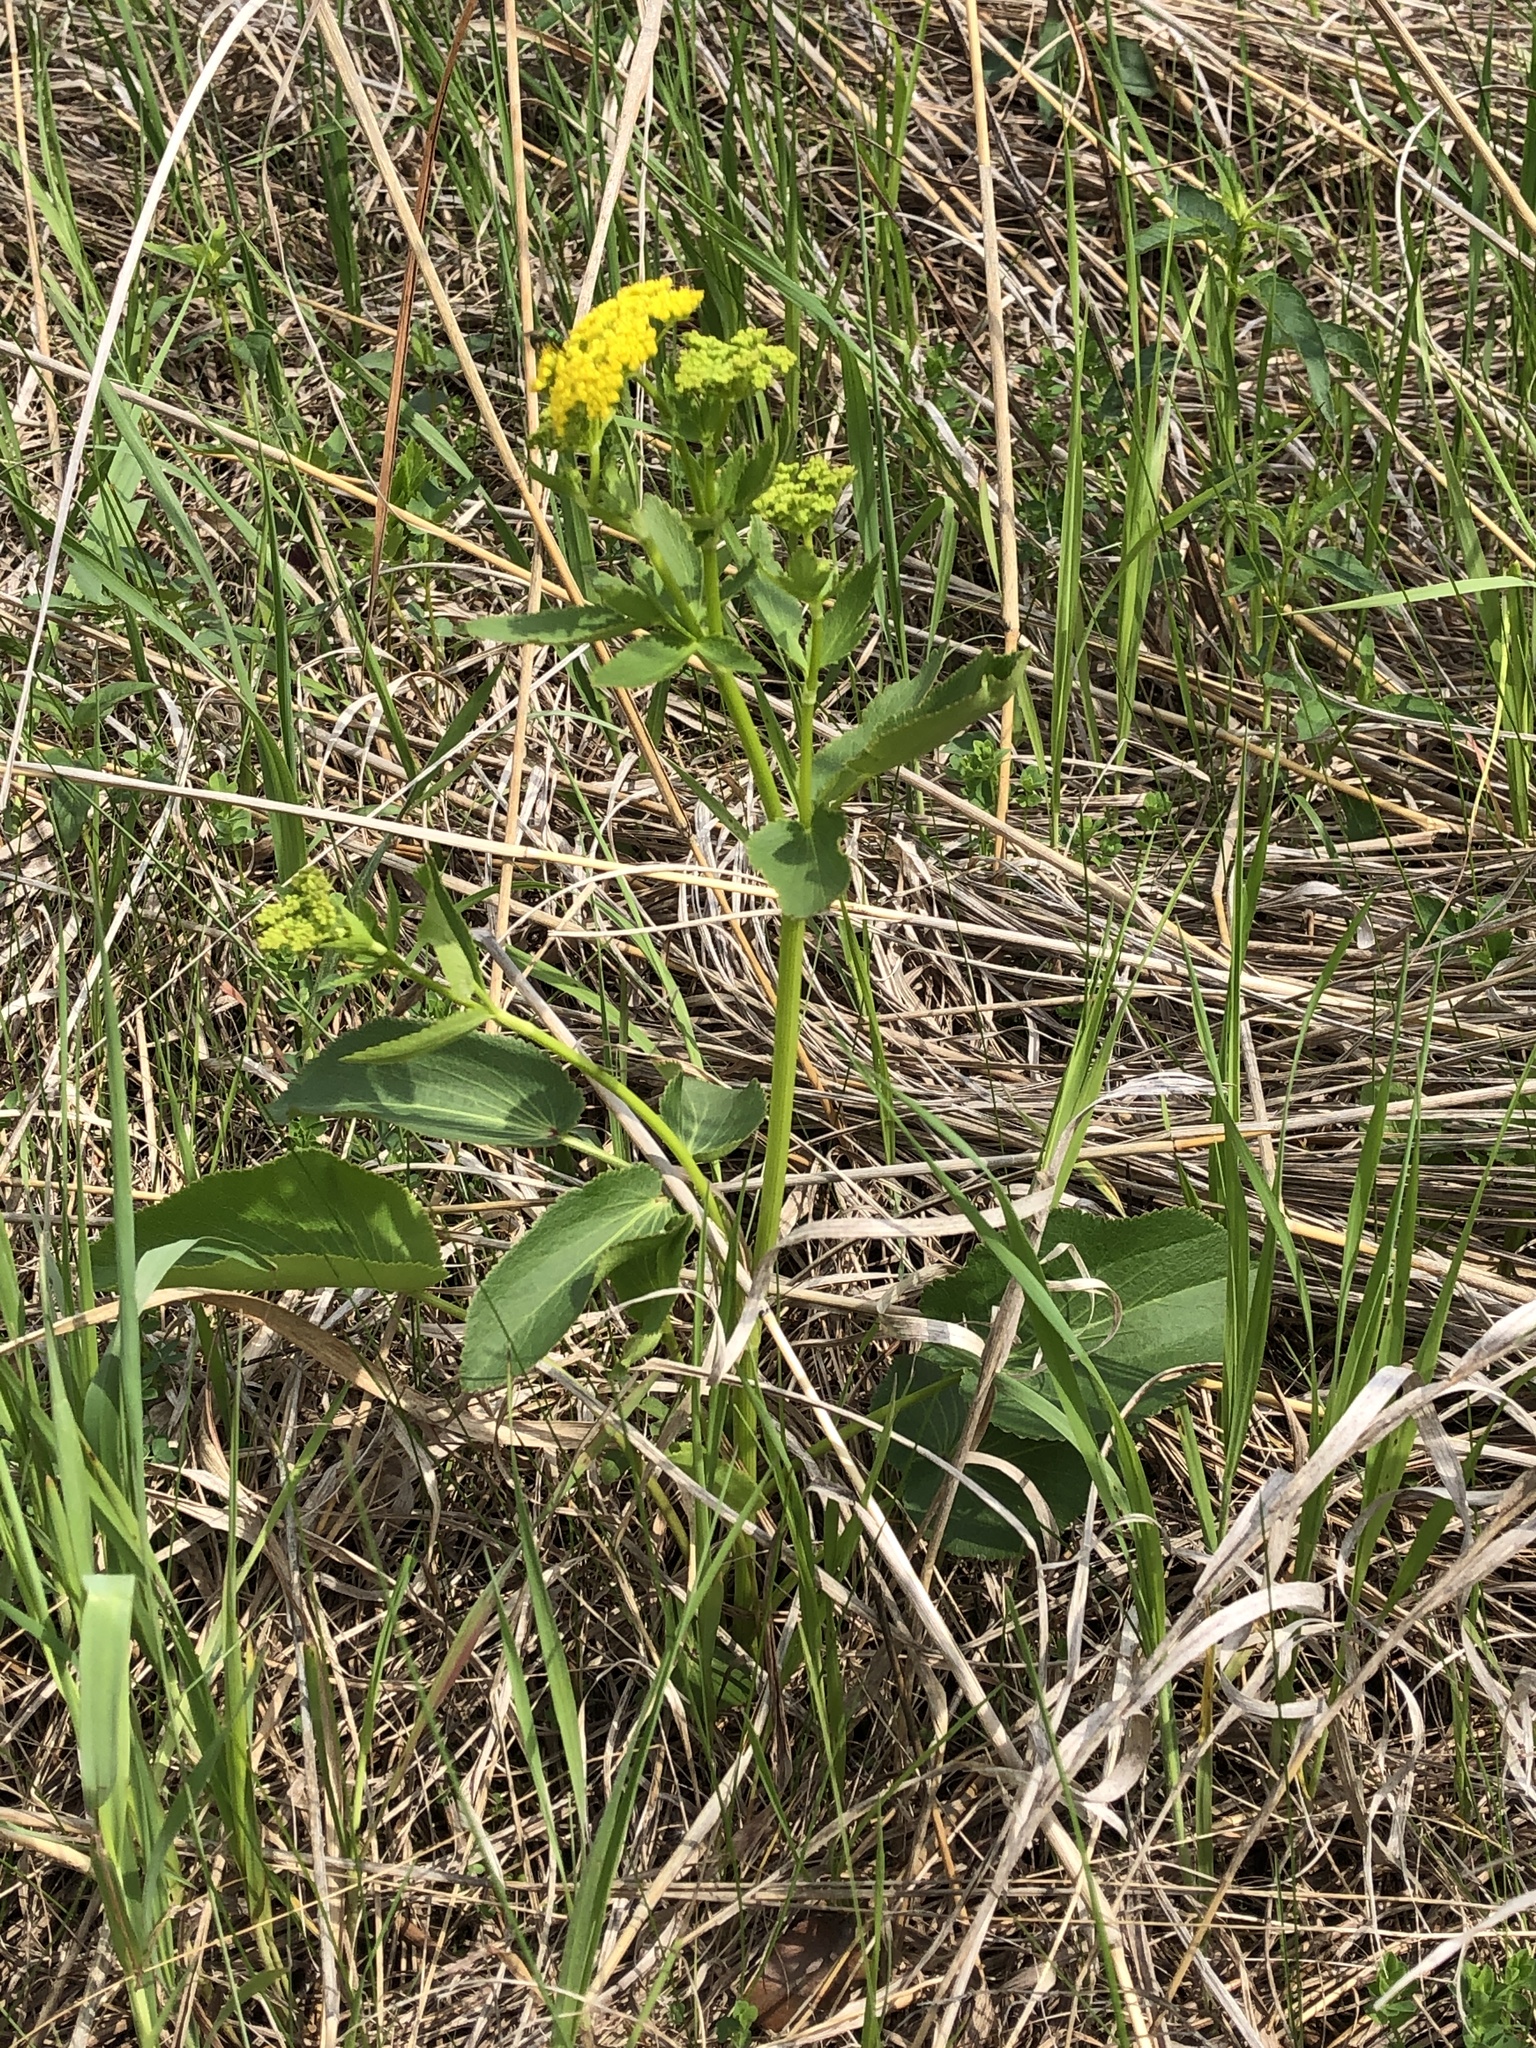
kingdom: Plantae
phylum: Tracheophyta
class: Magnoliopsida
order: Apiales
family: Apiaceae
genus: Zizia
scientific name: Zizia aptera
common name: Heart-leaved alexanders
